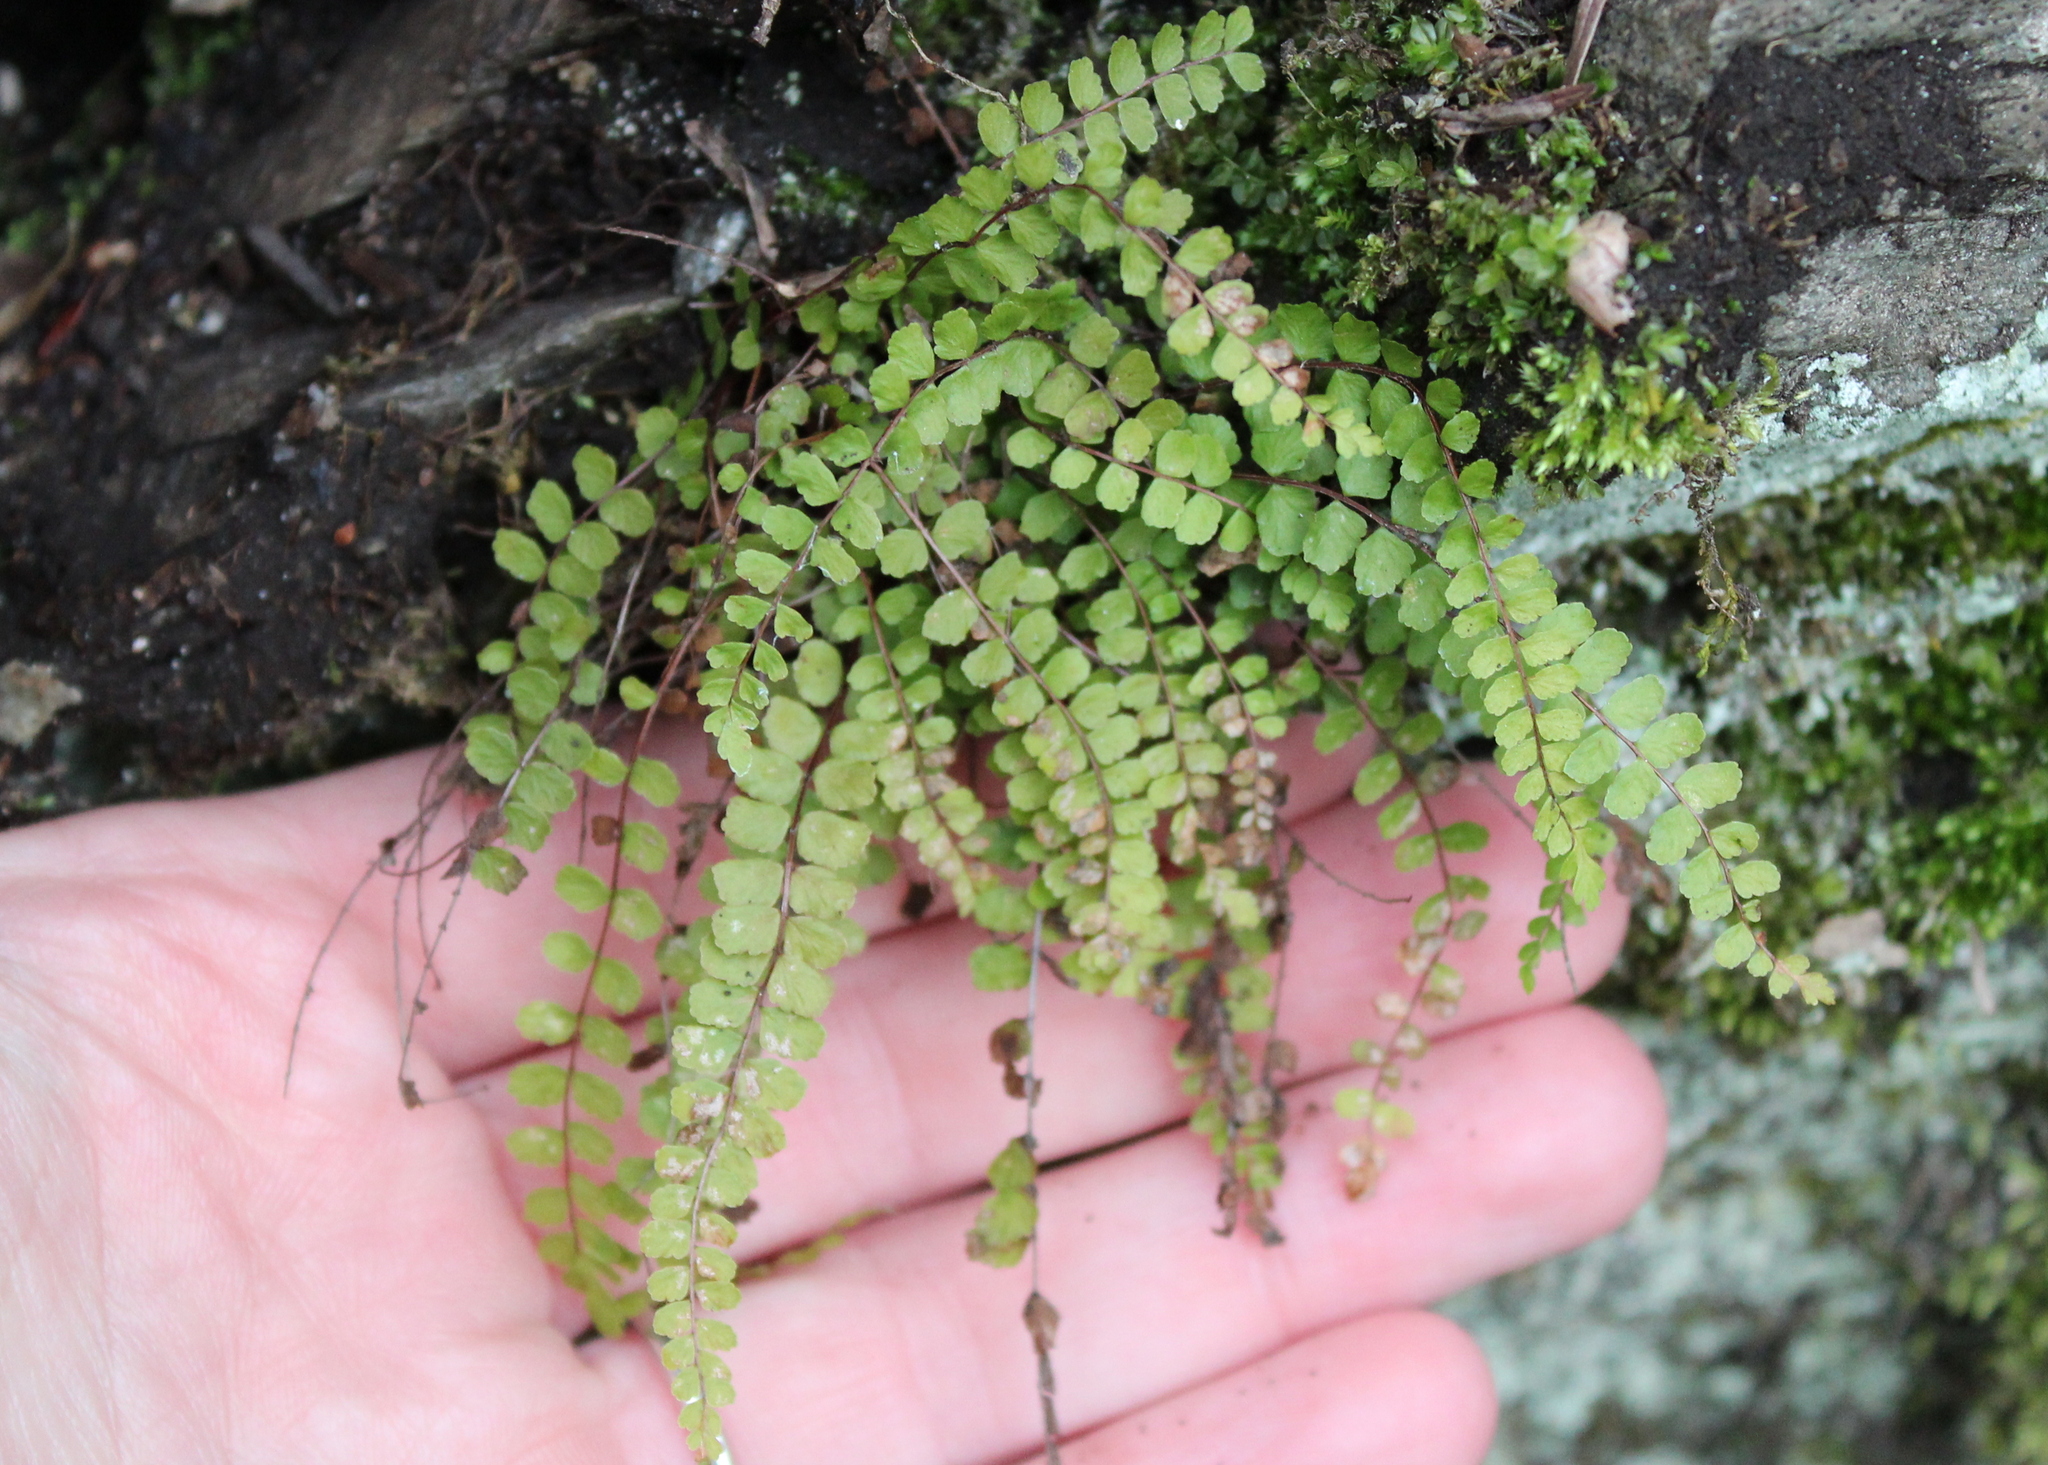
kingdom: Plantae
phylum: Tracheophyta
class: Polypodiopsida
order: Polypodiales
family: Aspleniaceae
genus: Asplenium
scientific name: Asplenium trichomanes
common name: Maidenhair spleenwort
